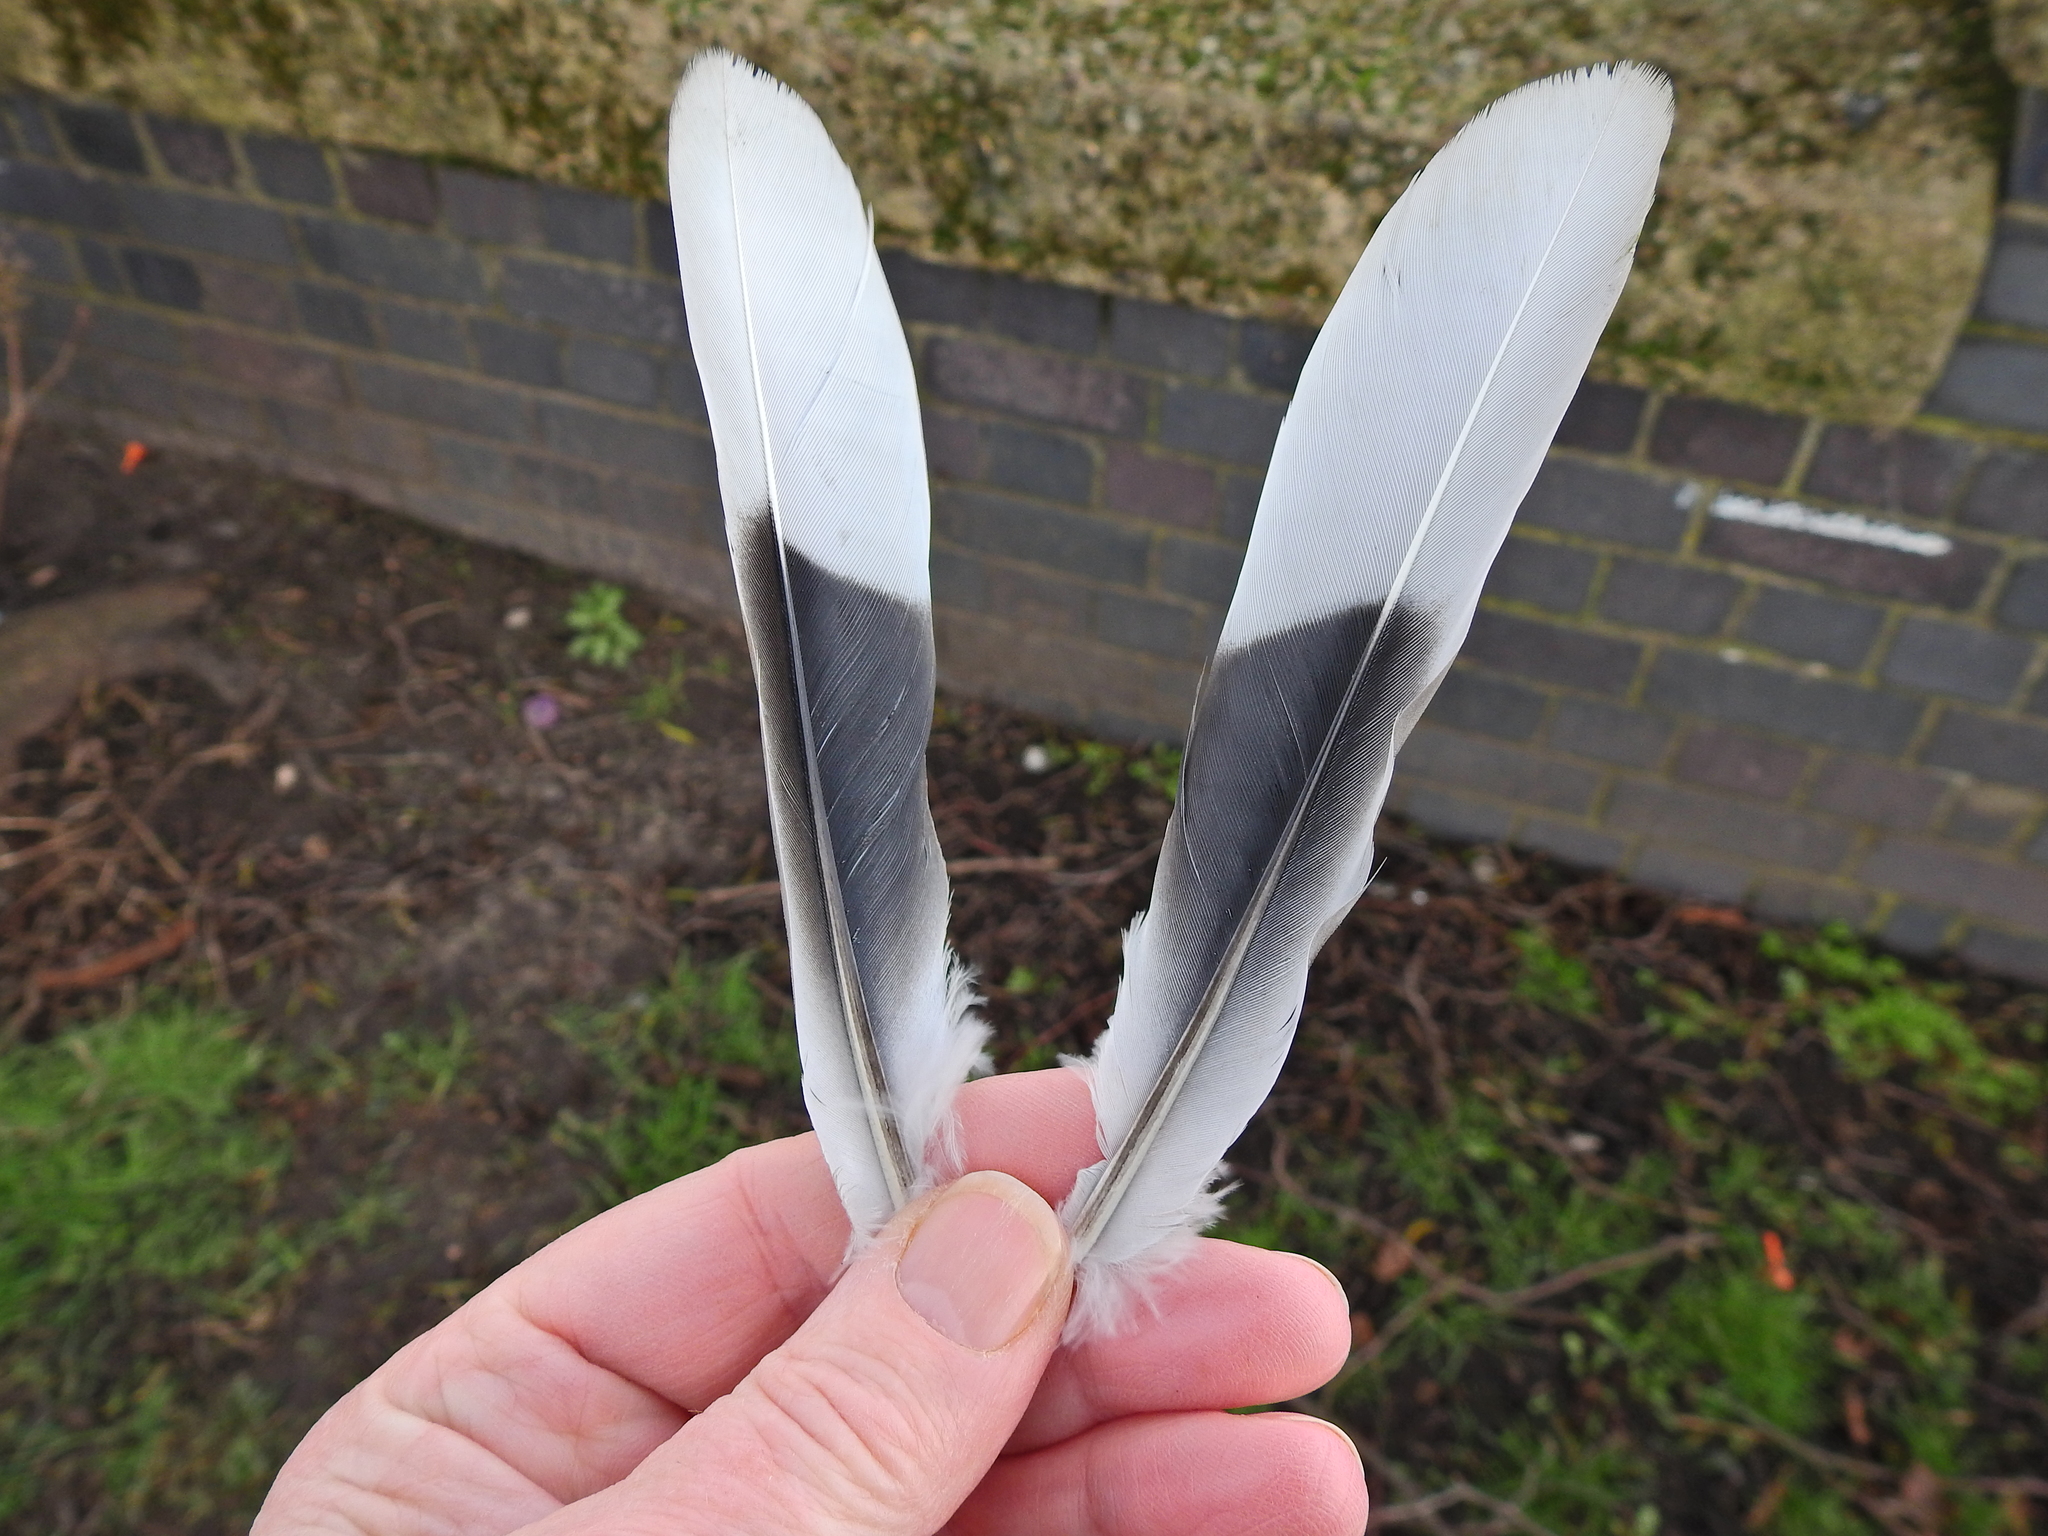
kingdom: Animalia
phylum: Chordata
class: Aves
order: Columbiformes
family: Columbidae
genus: Streptopelia
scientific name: Streptopelia decaocto
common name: Eurasian collared dove
